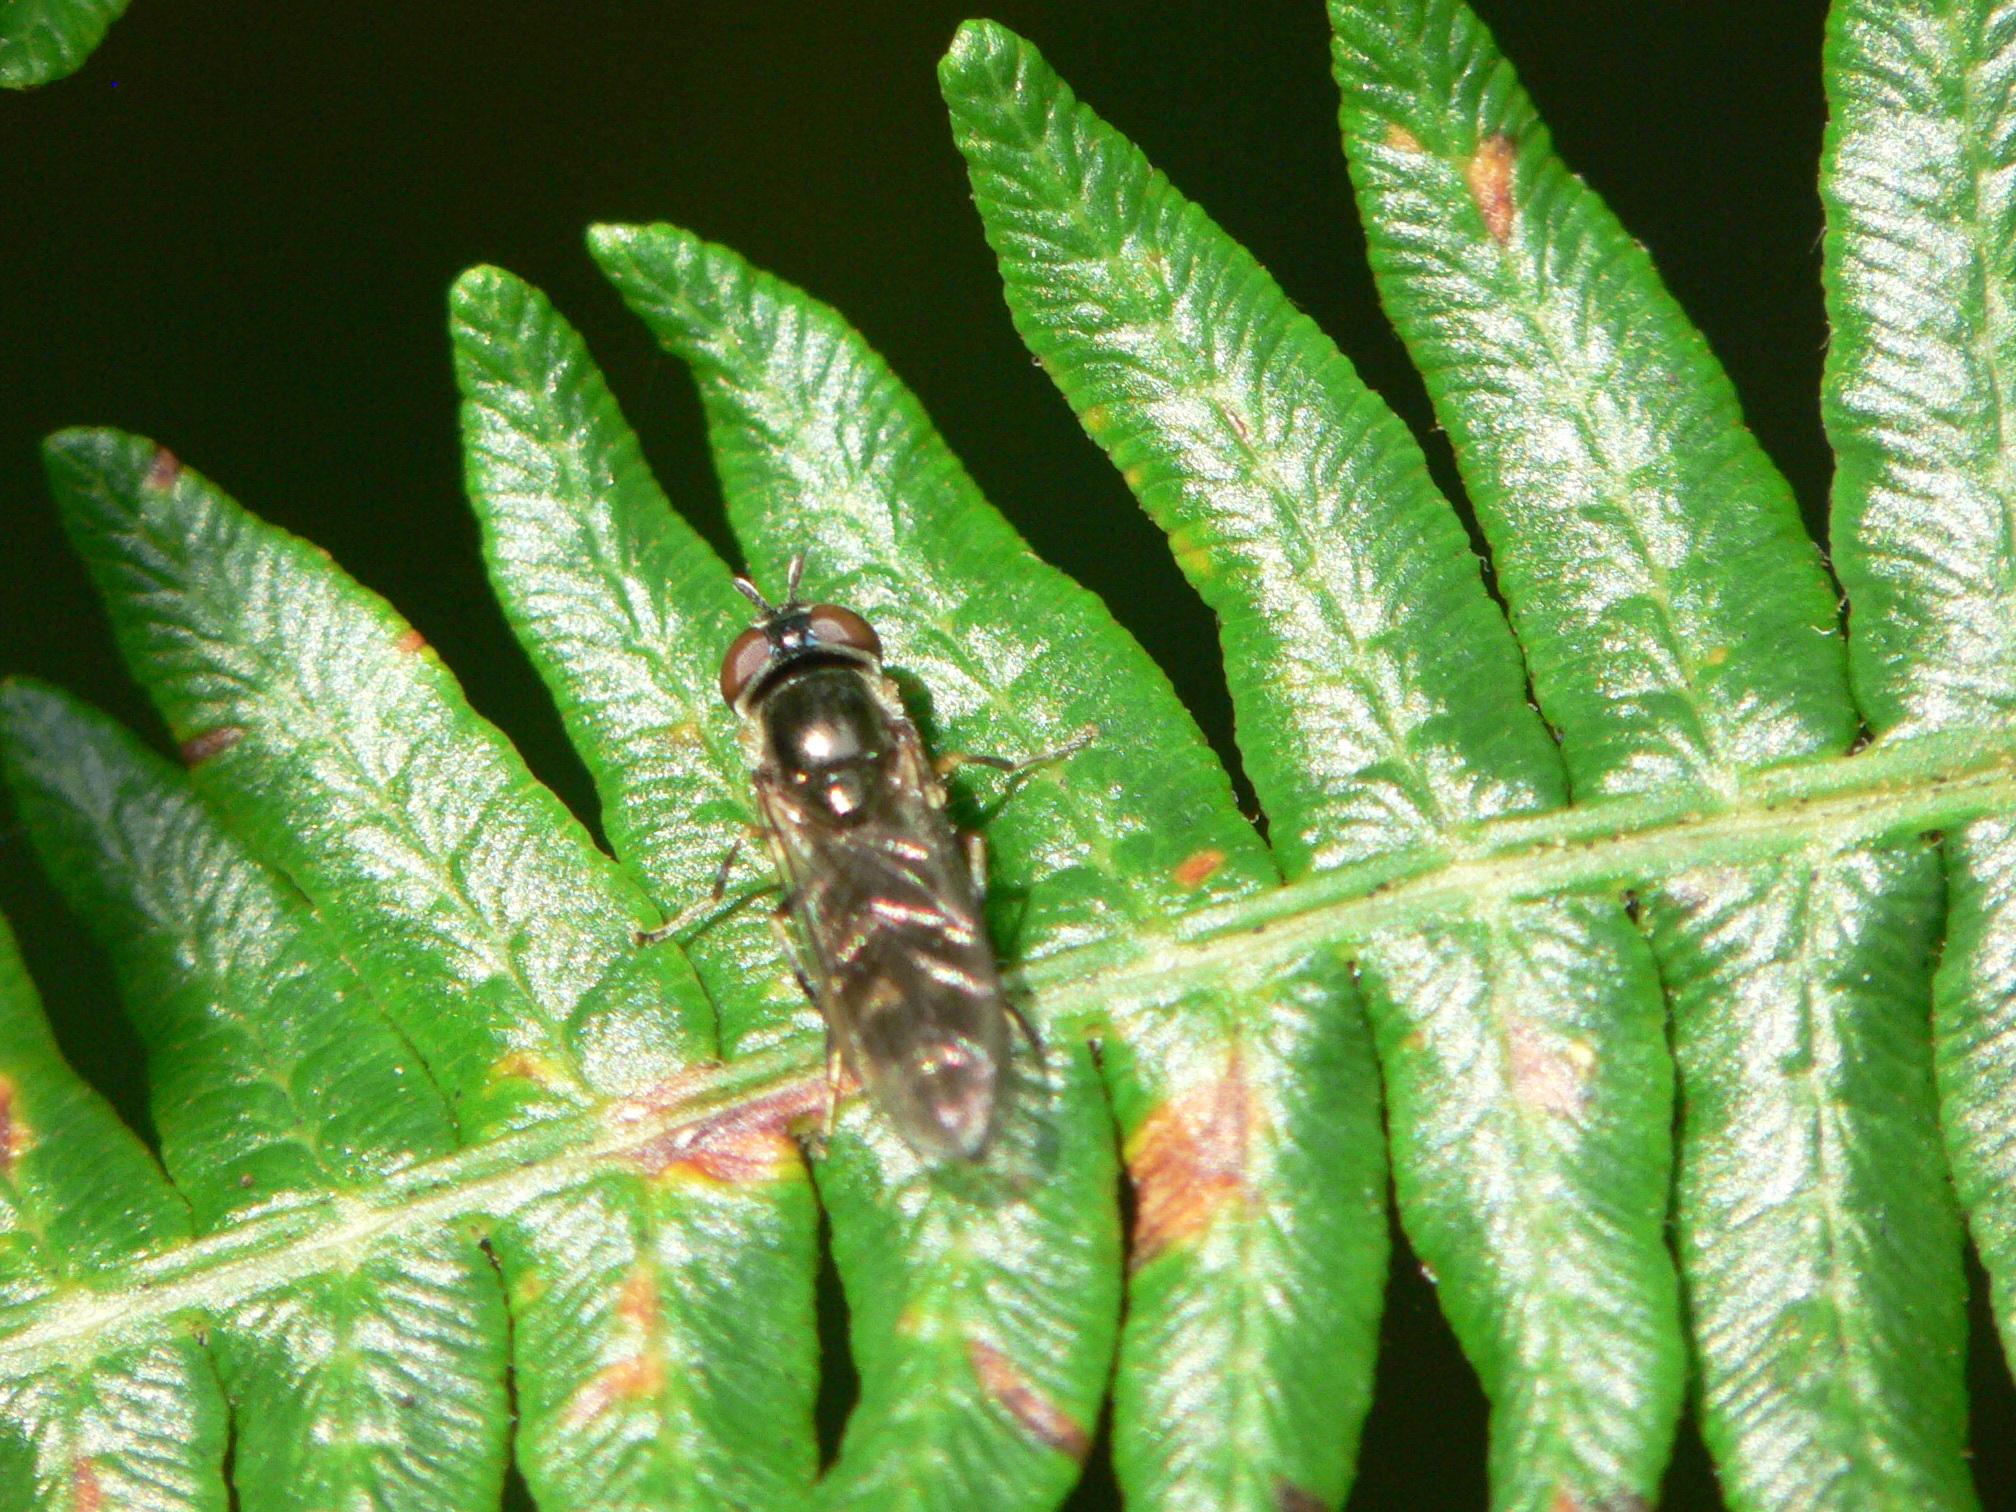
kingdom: Animalia
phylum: Arthropoda
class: Insecta
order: Diptera
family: Syrphidae
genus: Meliscaeva
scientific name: Meliscaeva auricollis
